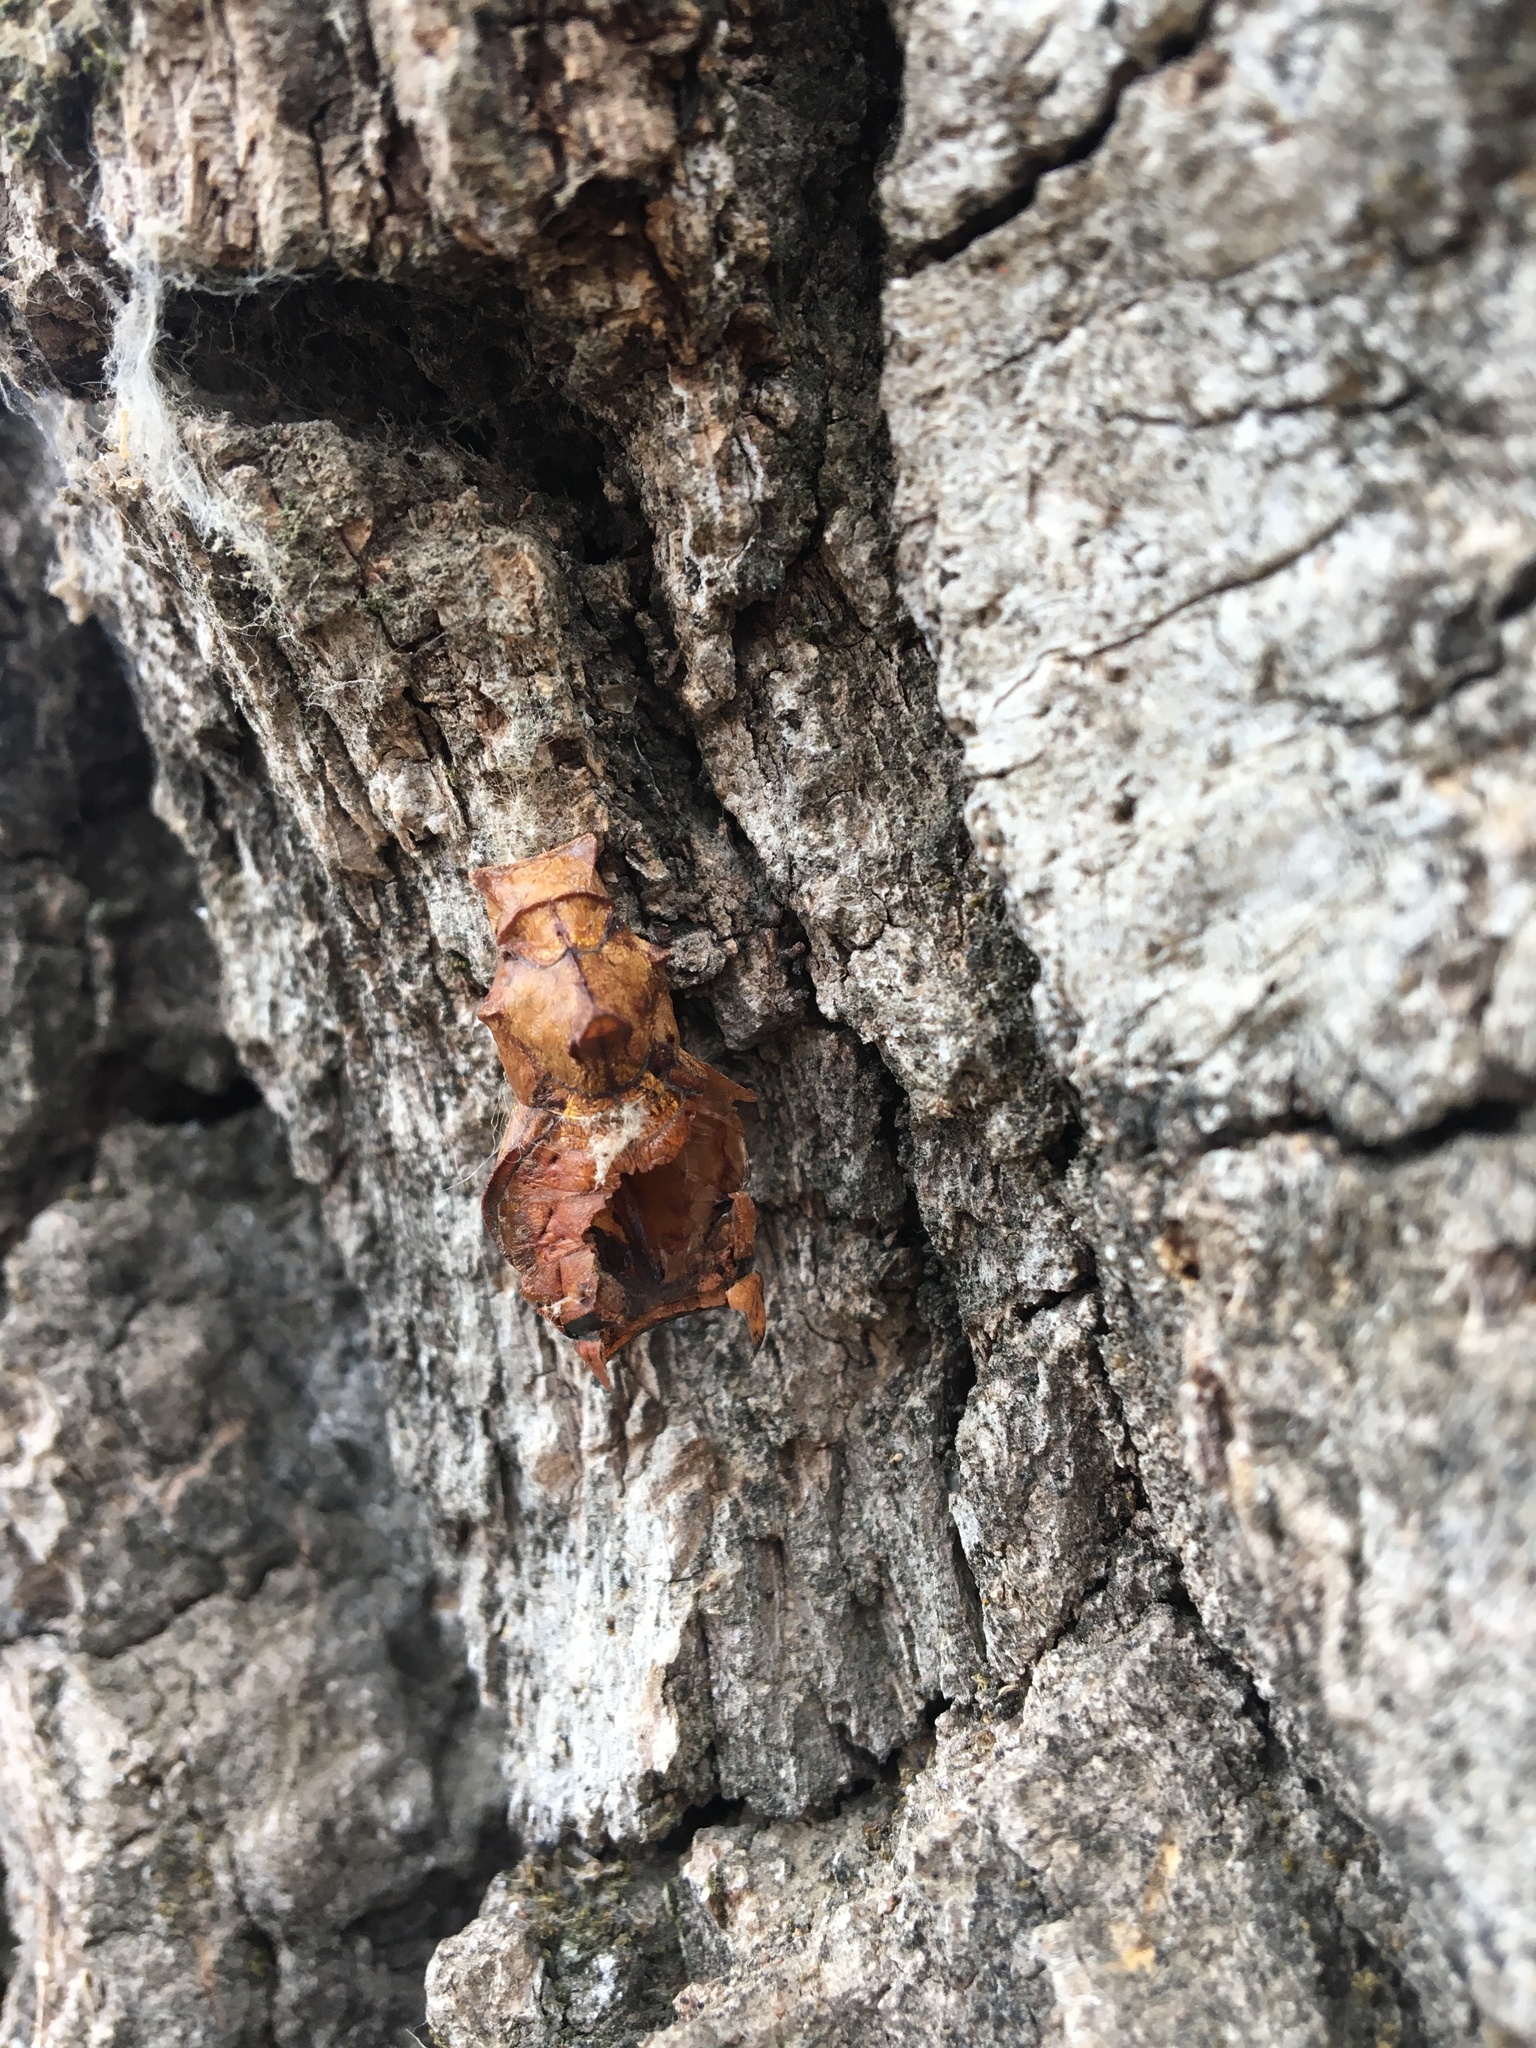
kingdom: Animalia
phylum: Arthropoda
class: Insecta
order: Lepidoptera
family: Papilionidae
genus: Battus
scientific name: Battus philenor
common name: Pipevine swallowtail
